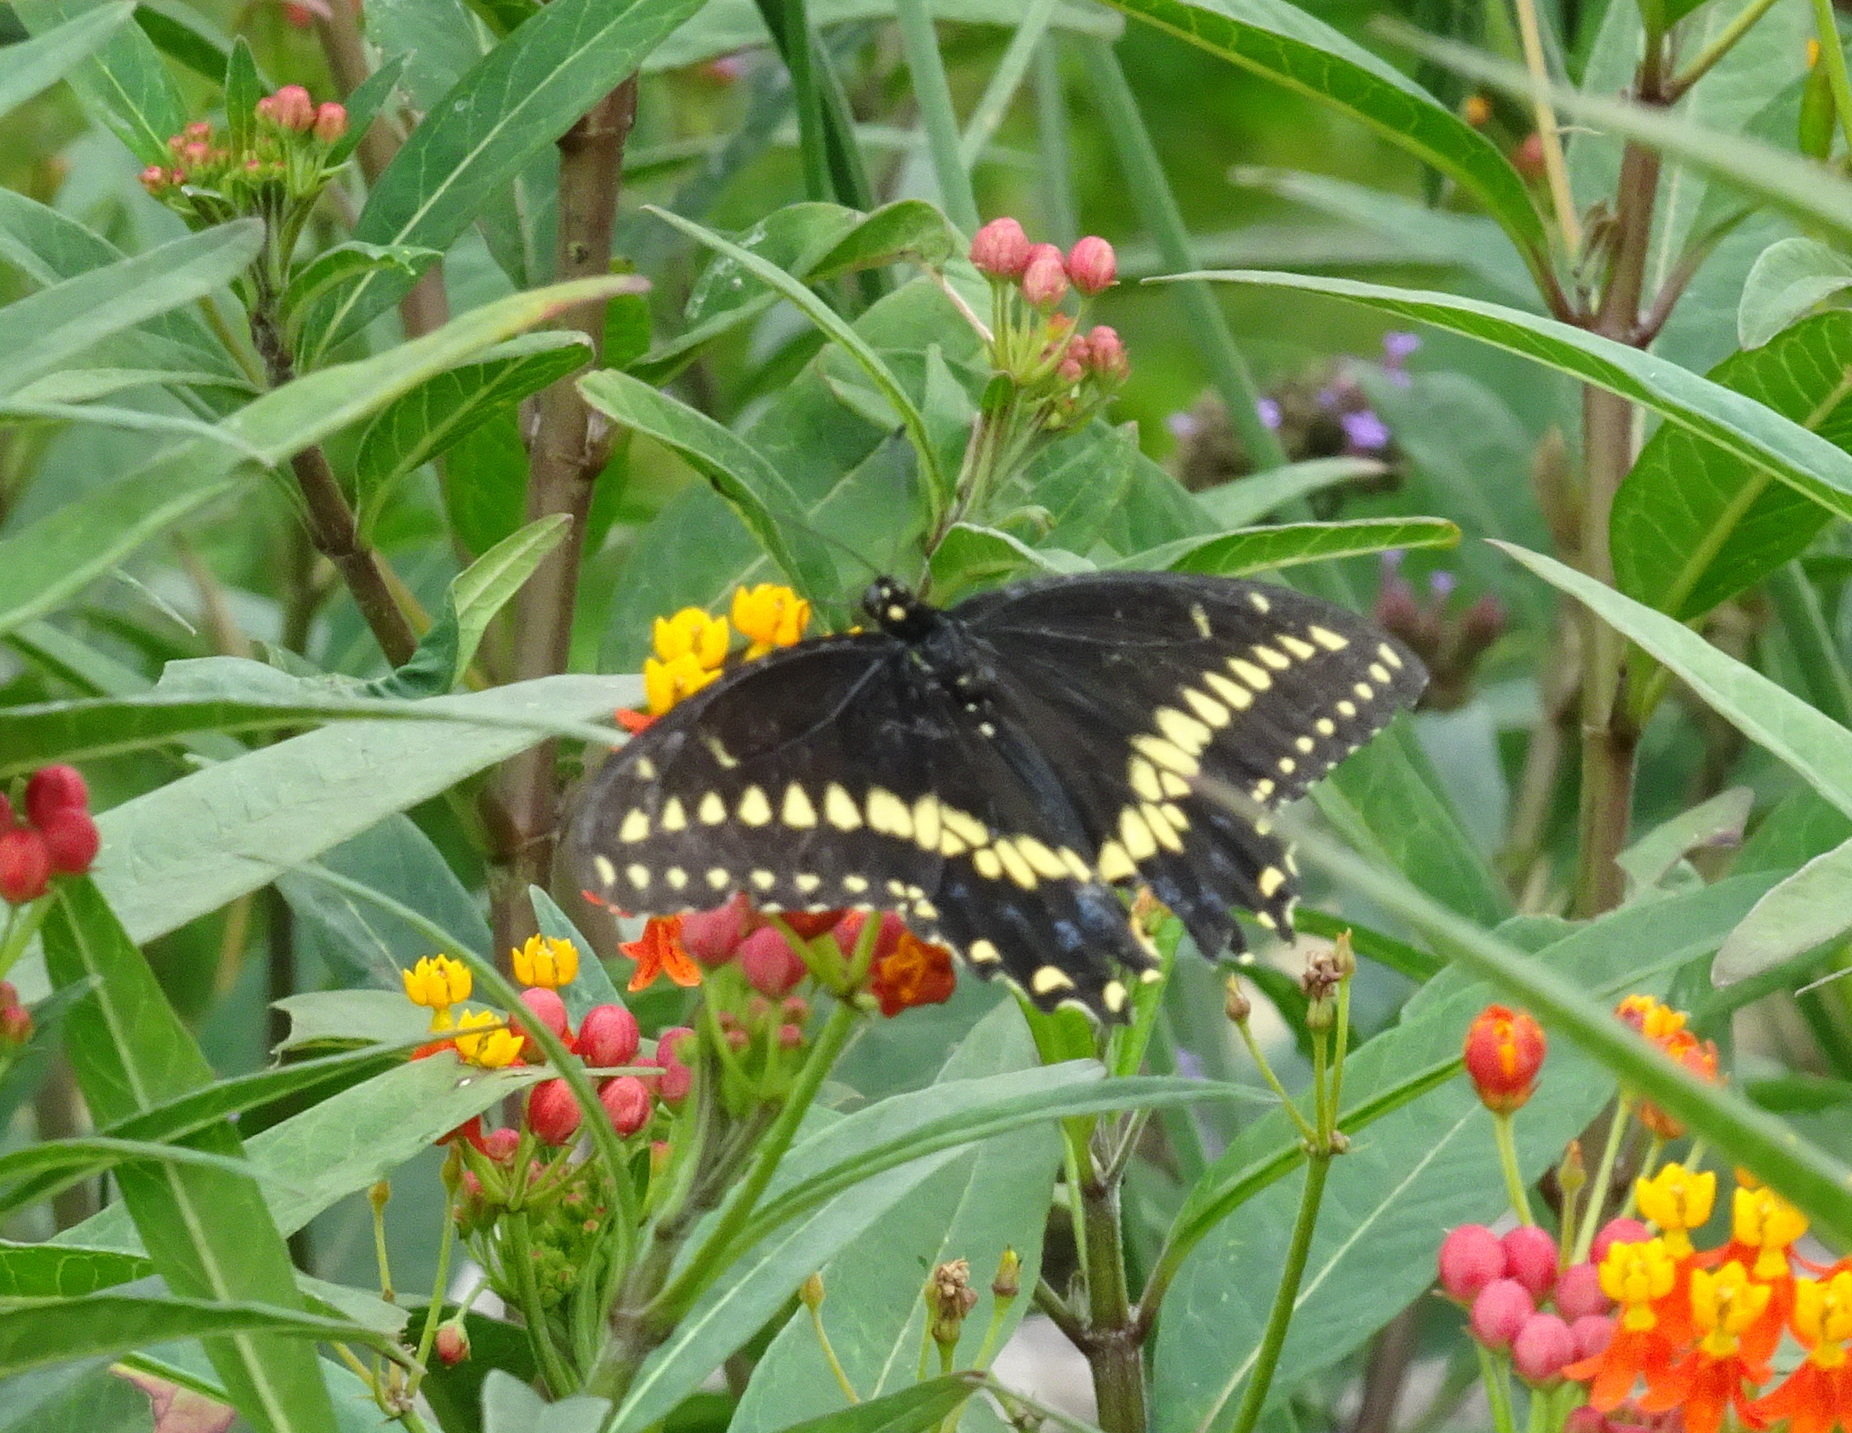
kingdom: Animalia
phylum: Arthropoda
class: Insecta
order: Lepidoptera
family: Papilionidae
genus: Papilio
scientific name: Papilio polyxenes
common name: Black swallowtail
